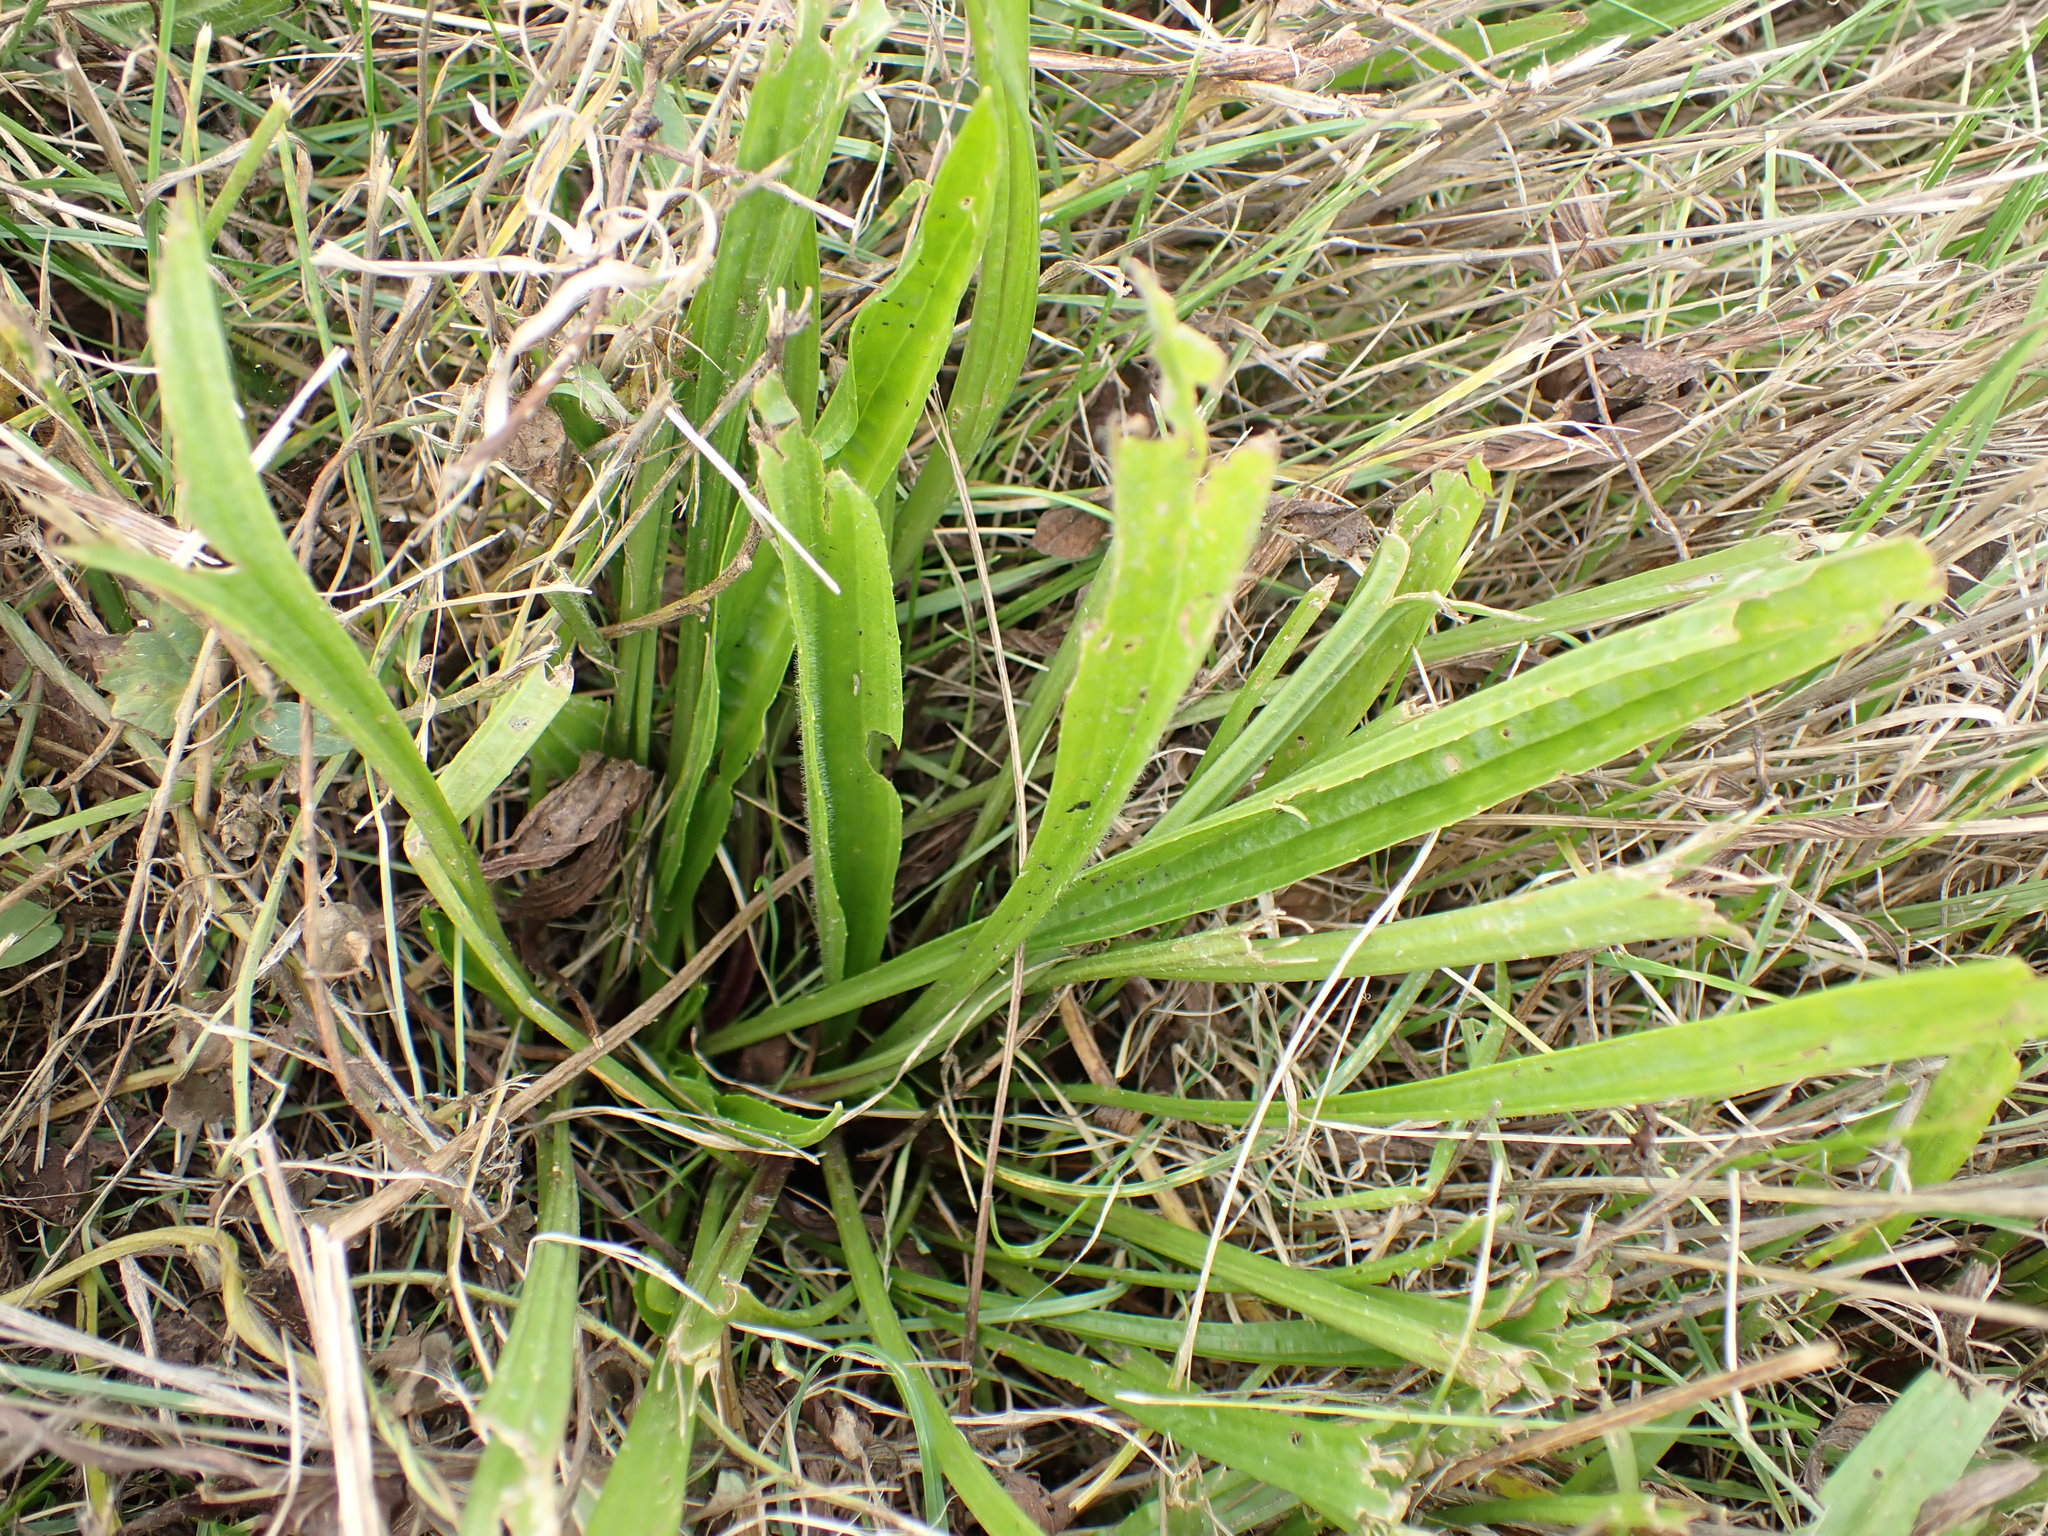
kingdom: Plantae
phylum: Tracheophyta
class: Magnoliopsida
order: Lamiales
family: Plantaginaceae
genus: Plantago
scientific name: Plantago lanceolata
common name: Ribwort plantain
